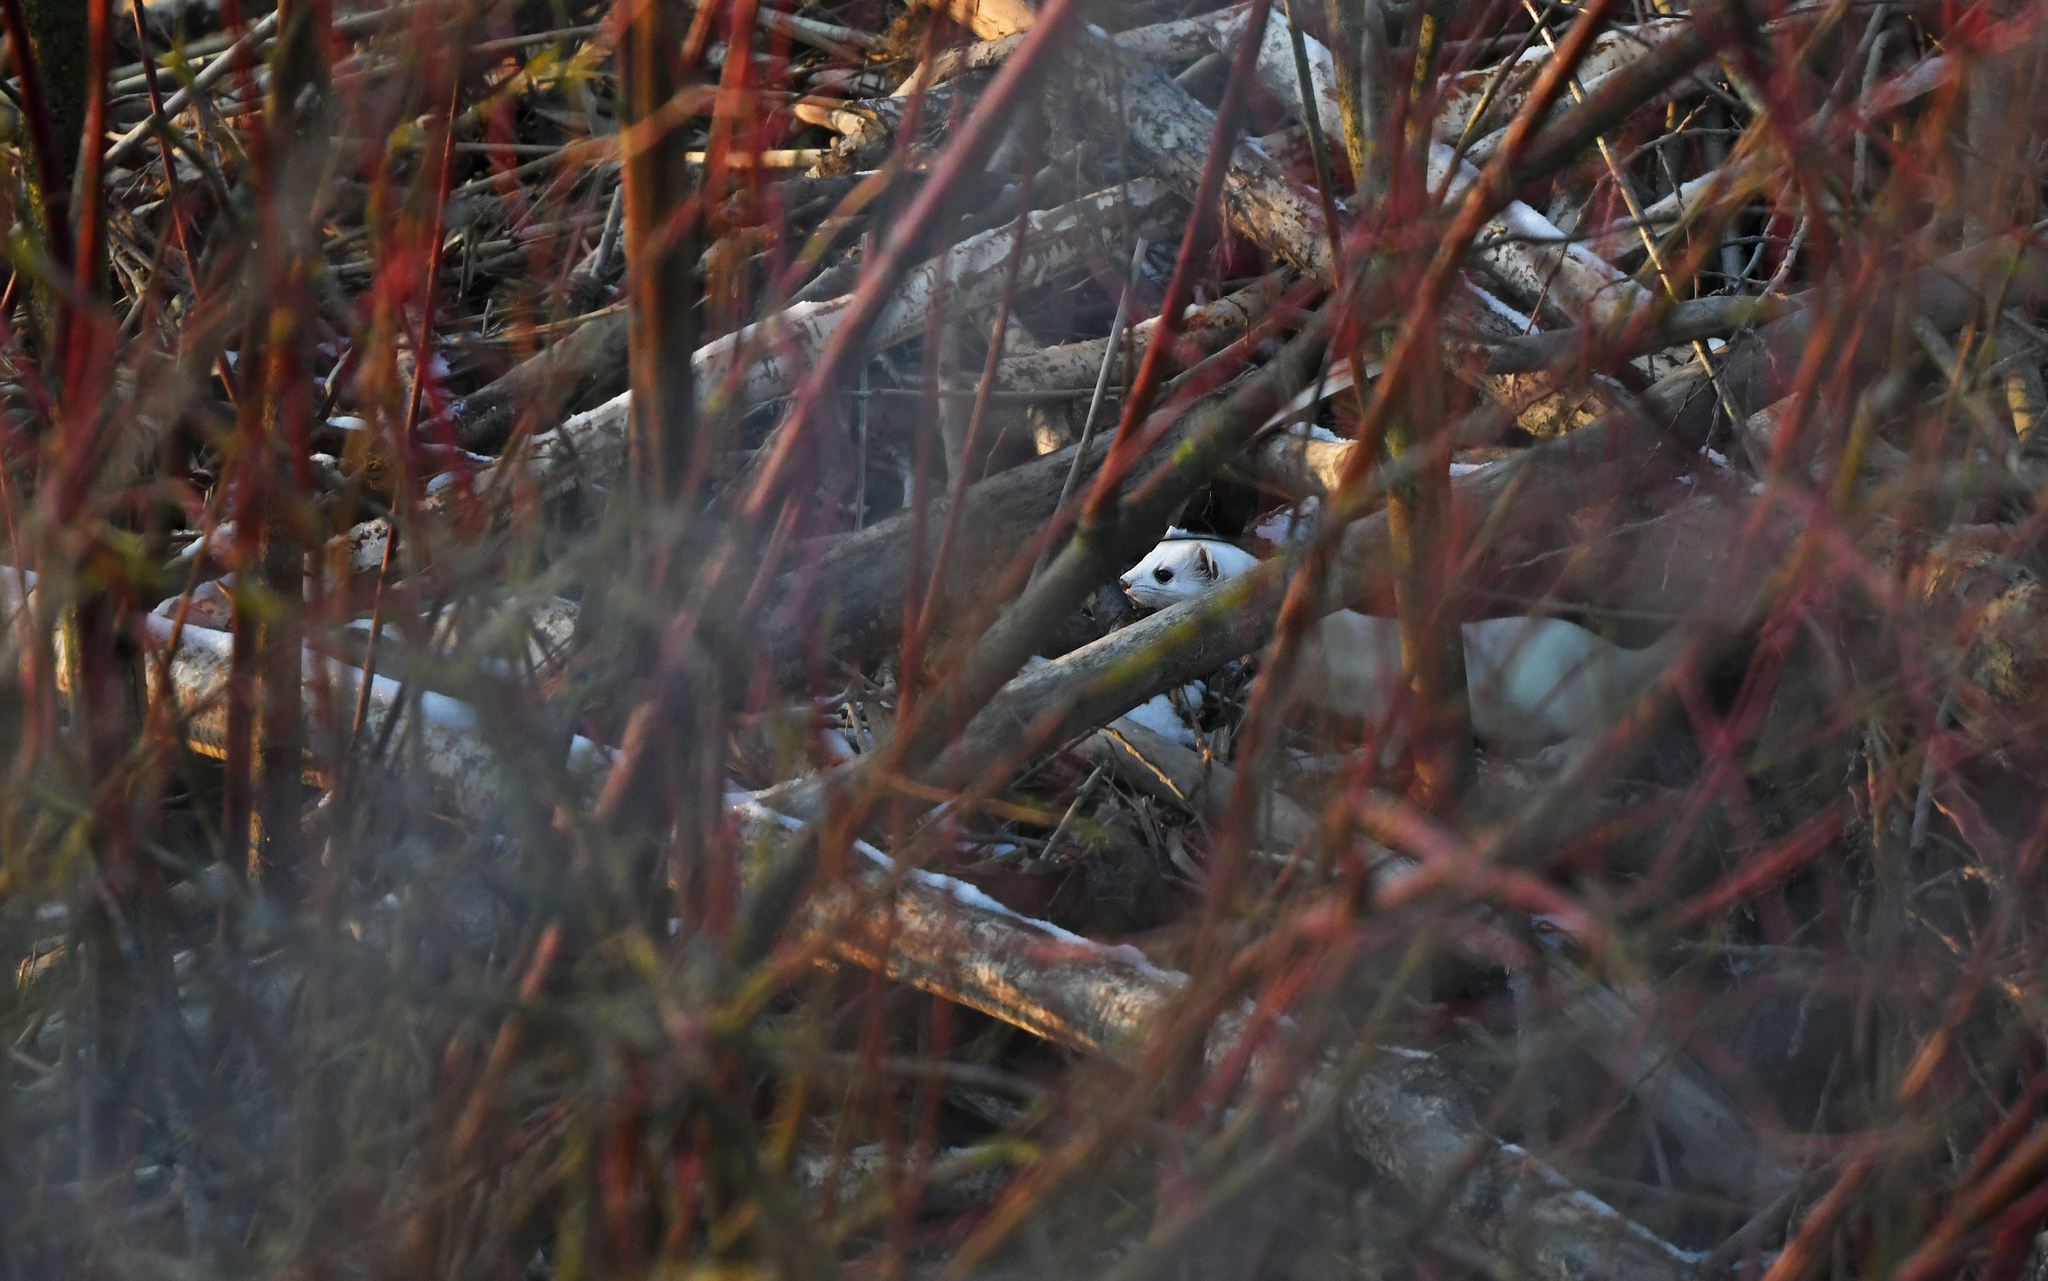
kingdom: Animalia
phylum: Chordata
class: Mammalia
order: Carnivora
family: Mustelidae
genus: Mustela
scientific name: Mustela erminea
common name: Stoat
